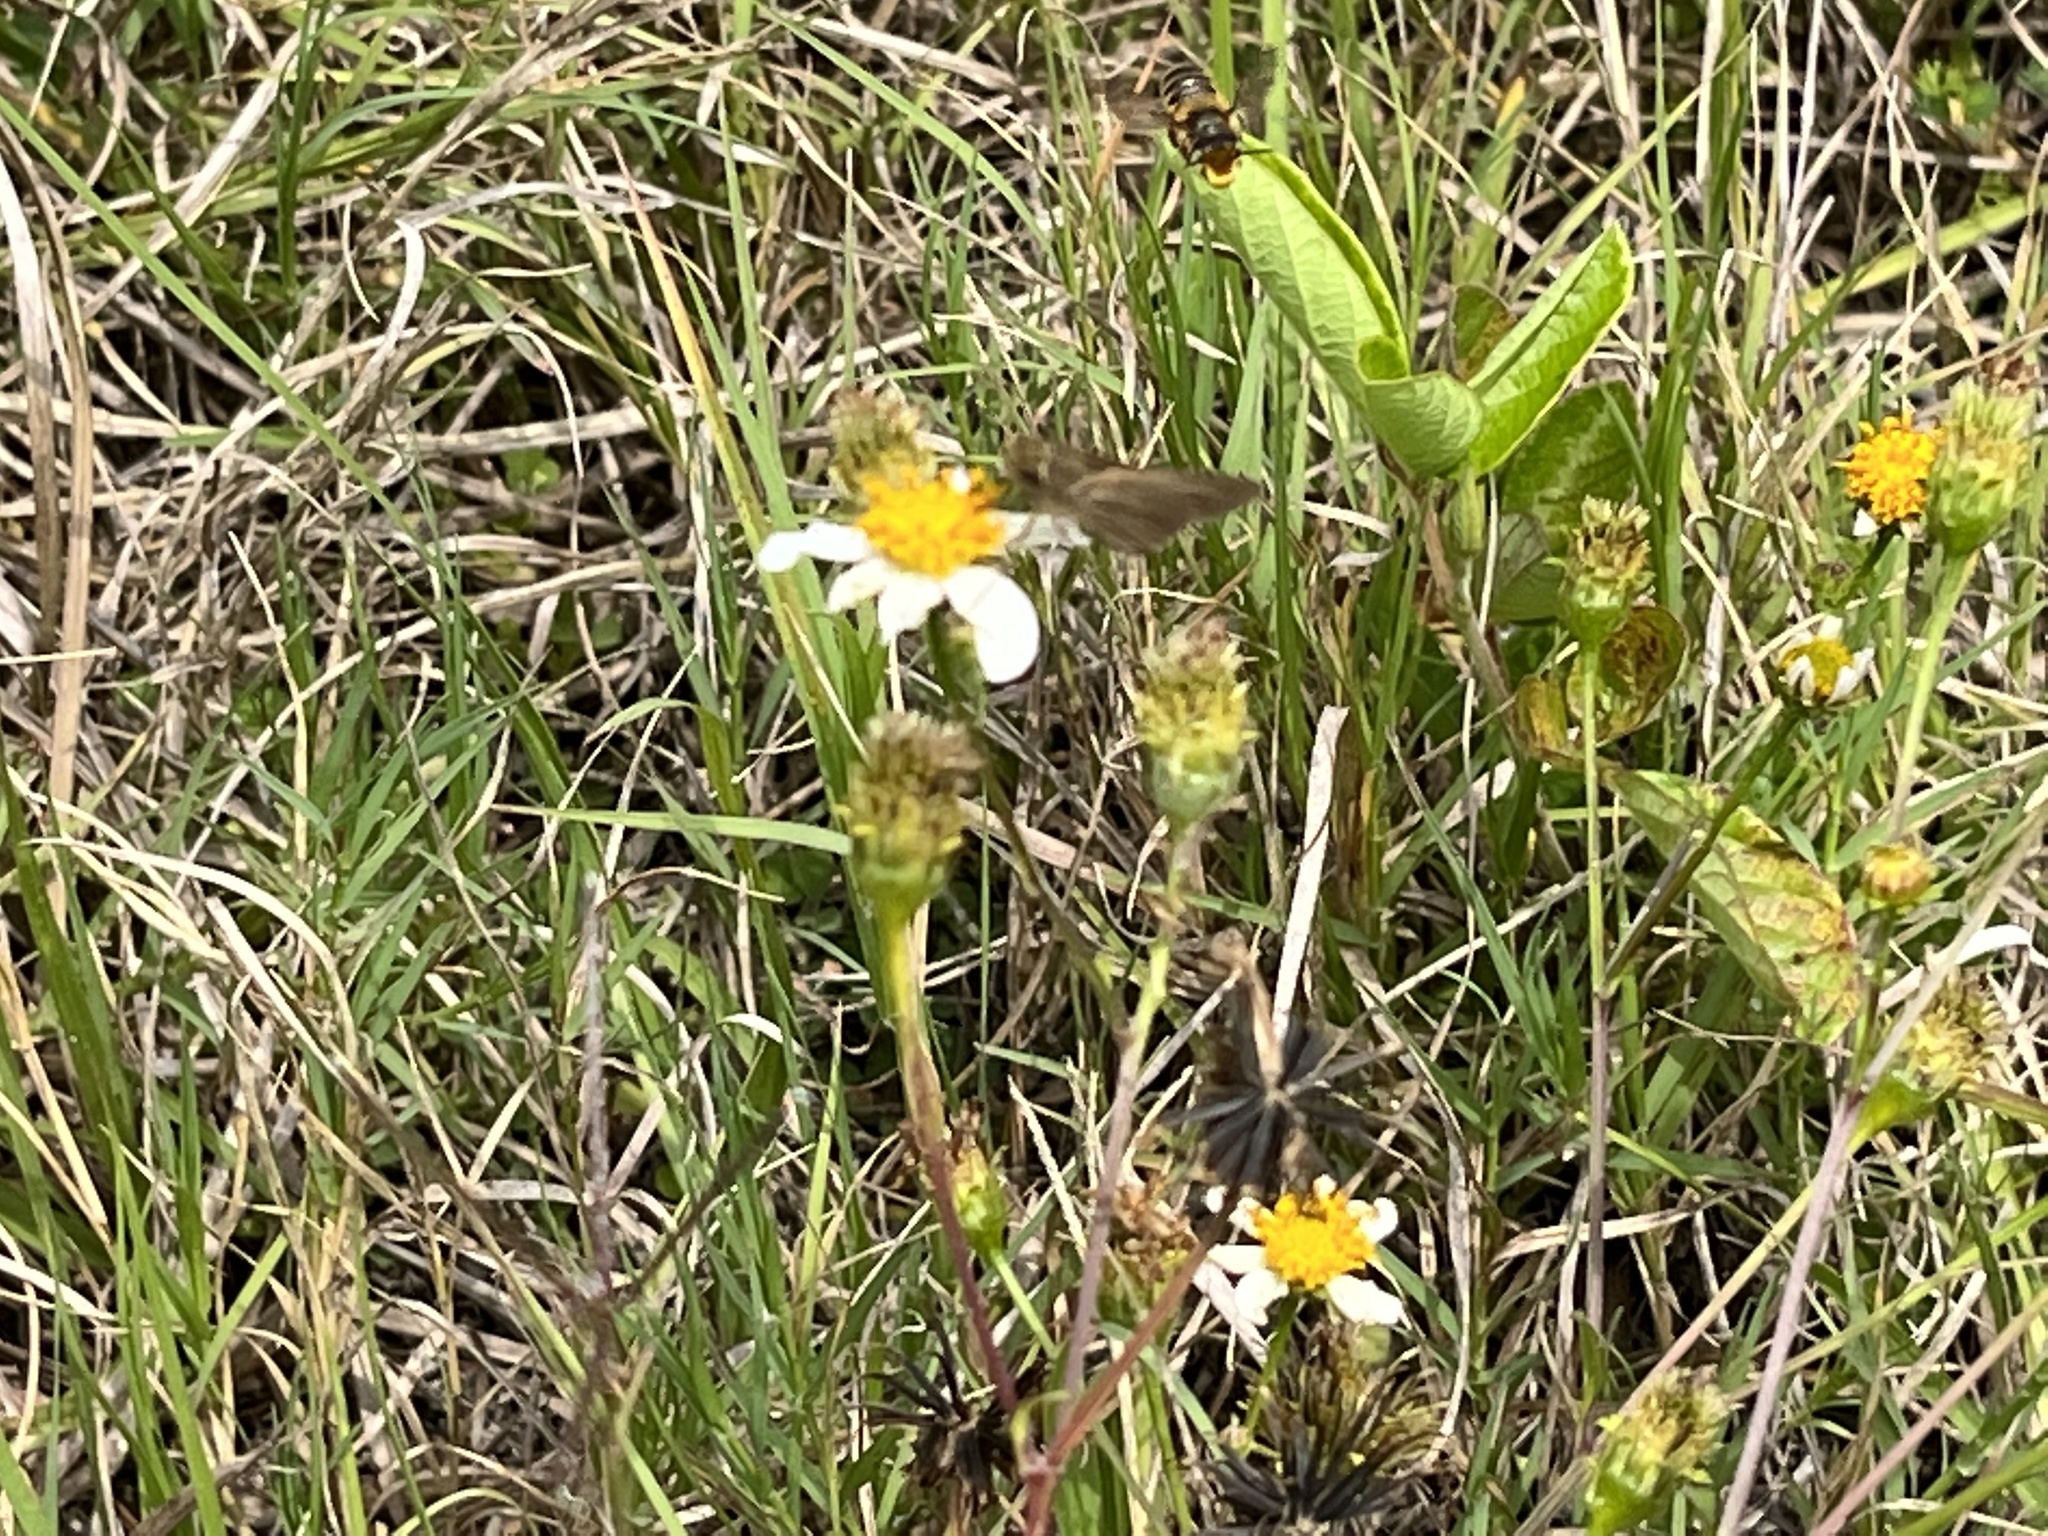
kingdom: Animalia
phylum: Arthropoda
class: Insecta
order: Lepidoptera
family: Hesperiidae
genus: Panoquina
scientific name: Panoquina ocola
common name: Ocola skipper
